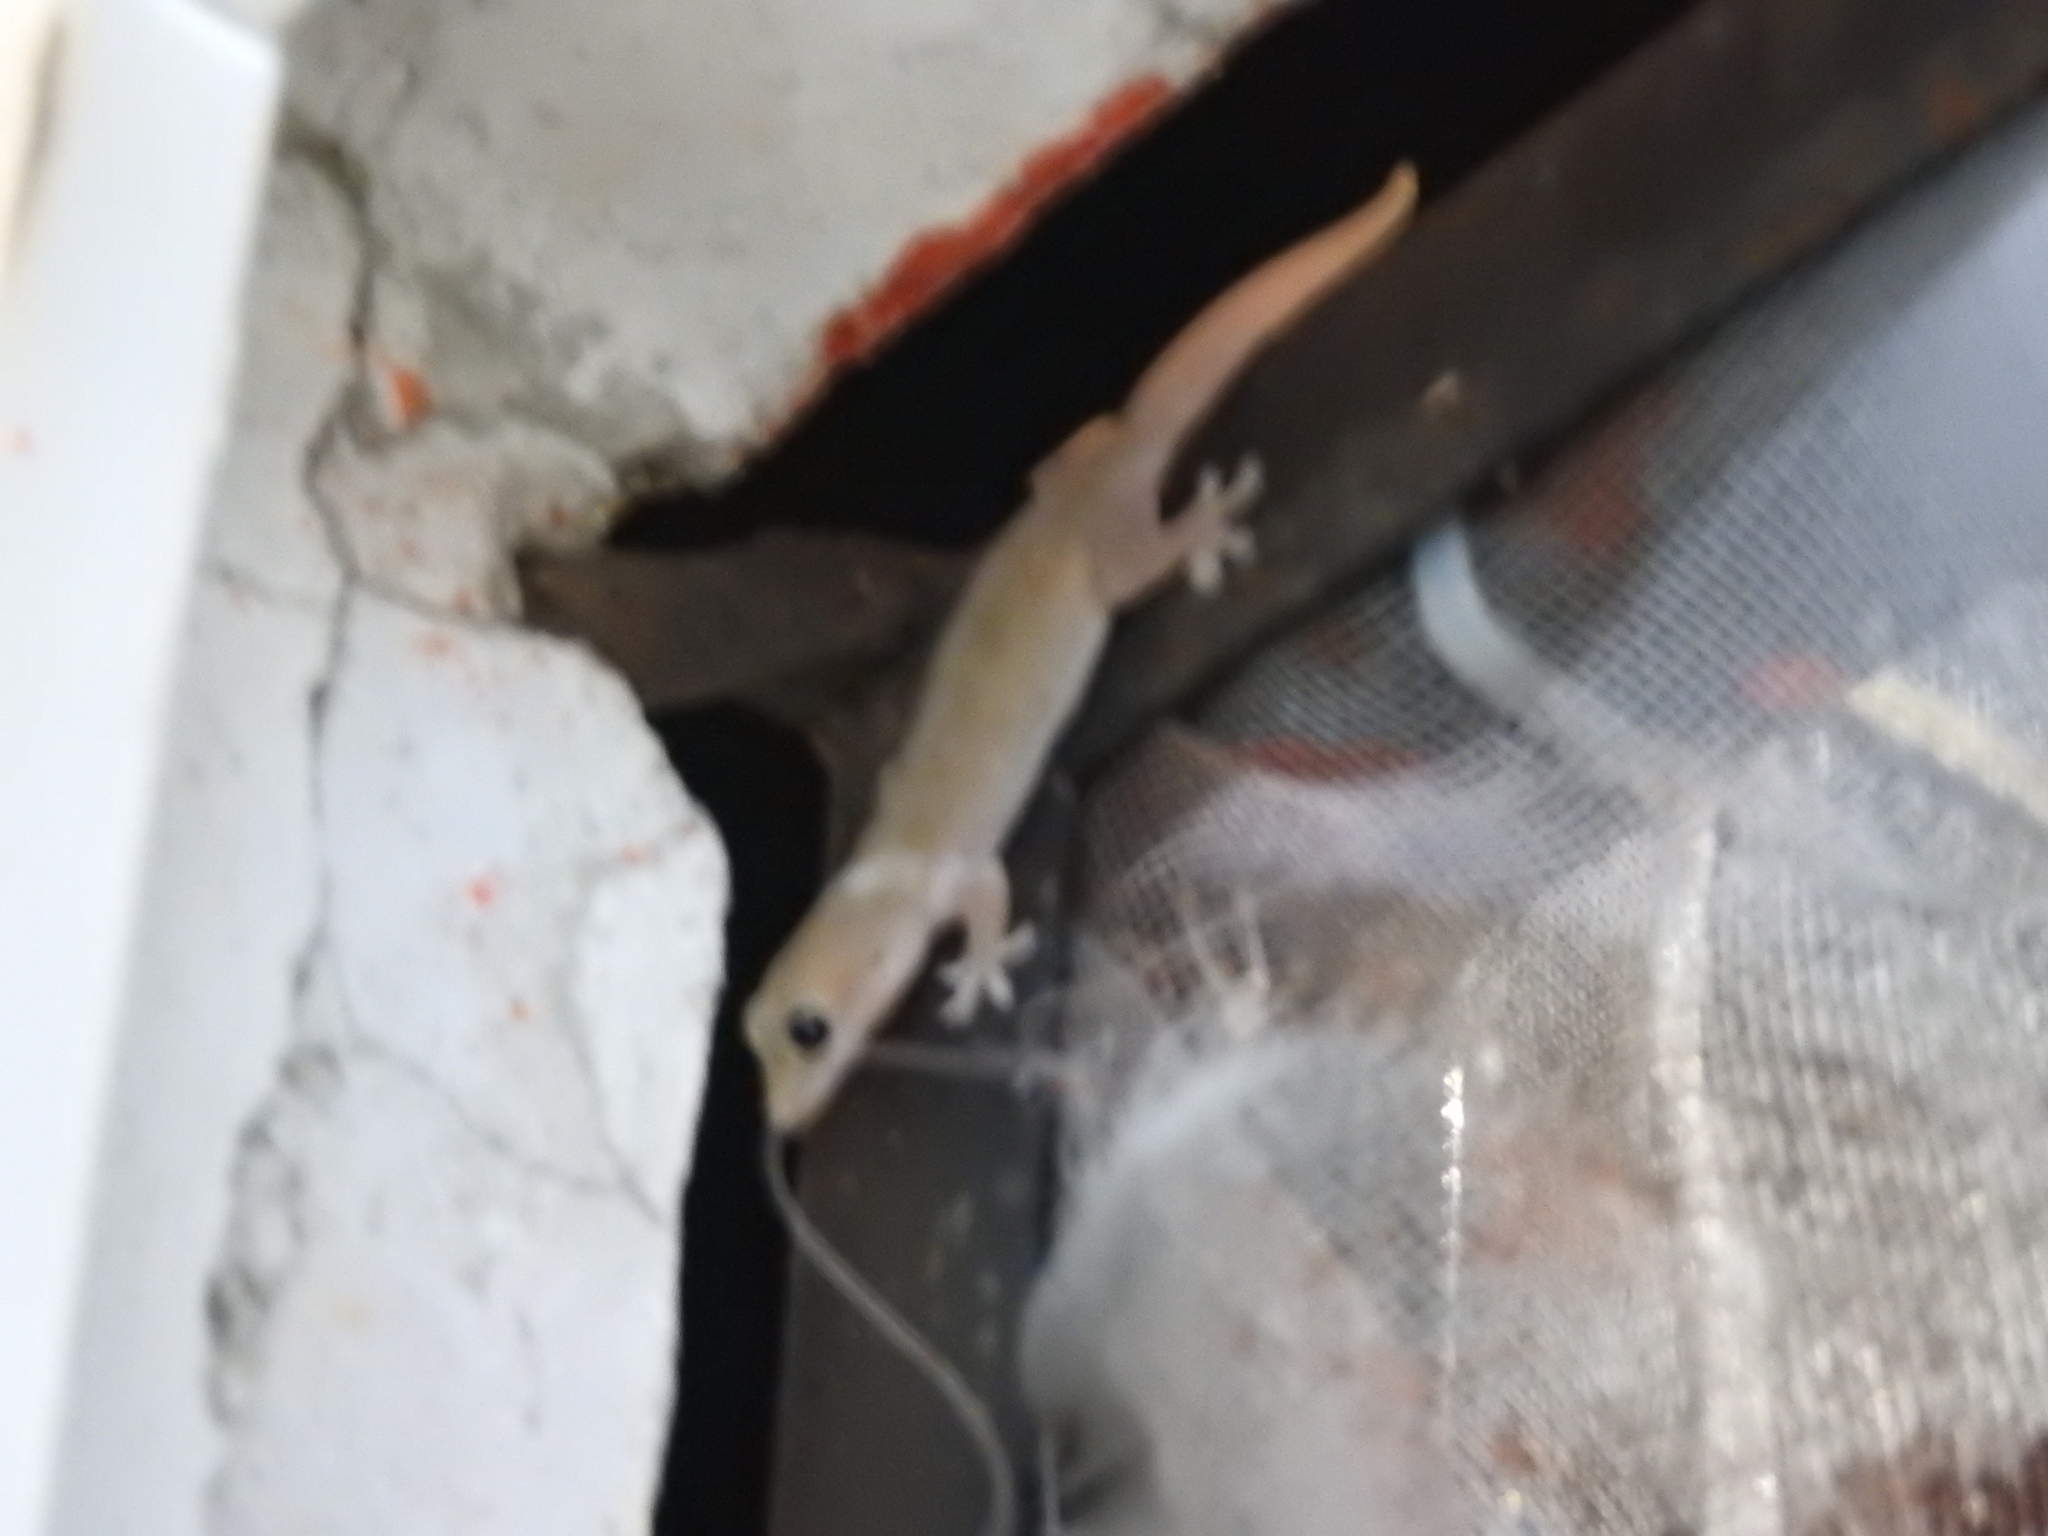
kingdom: Animalia
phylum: Chordata
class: Squamata
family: Gekkonidae
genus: Hemidactylus
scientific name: Hemidactylus frenatus
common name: Common house gecko
